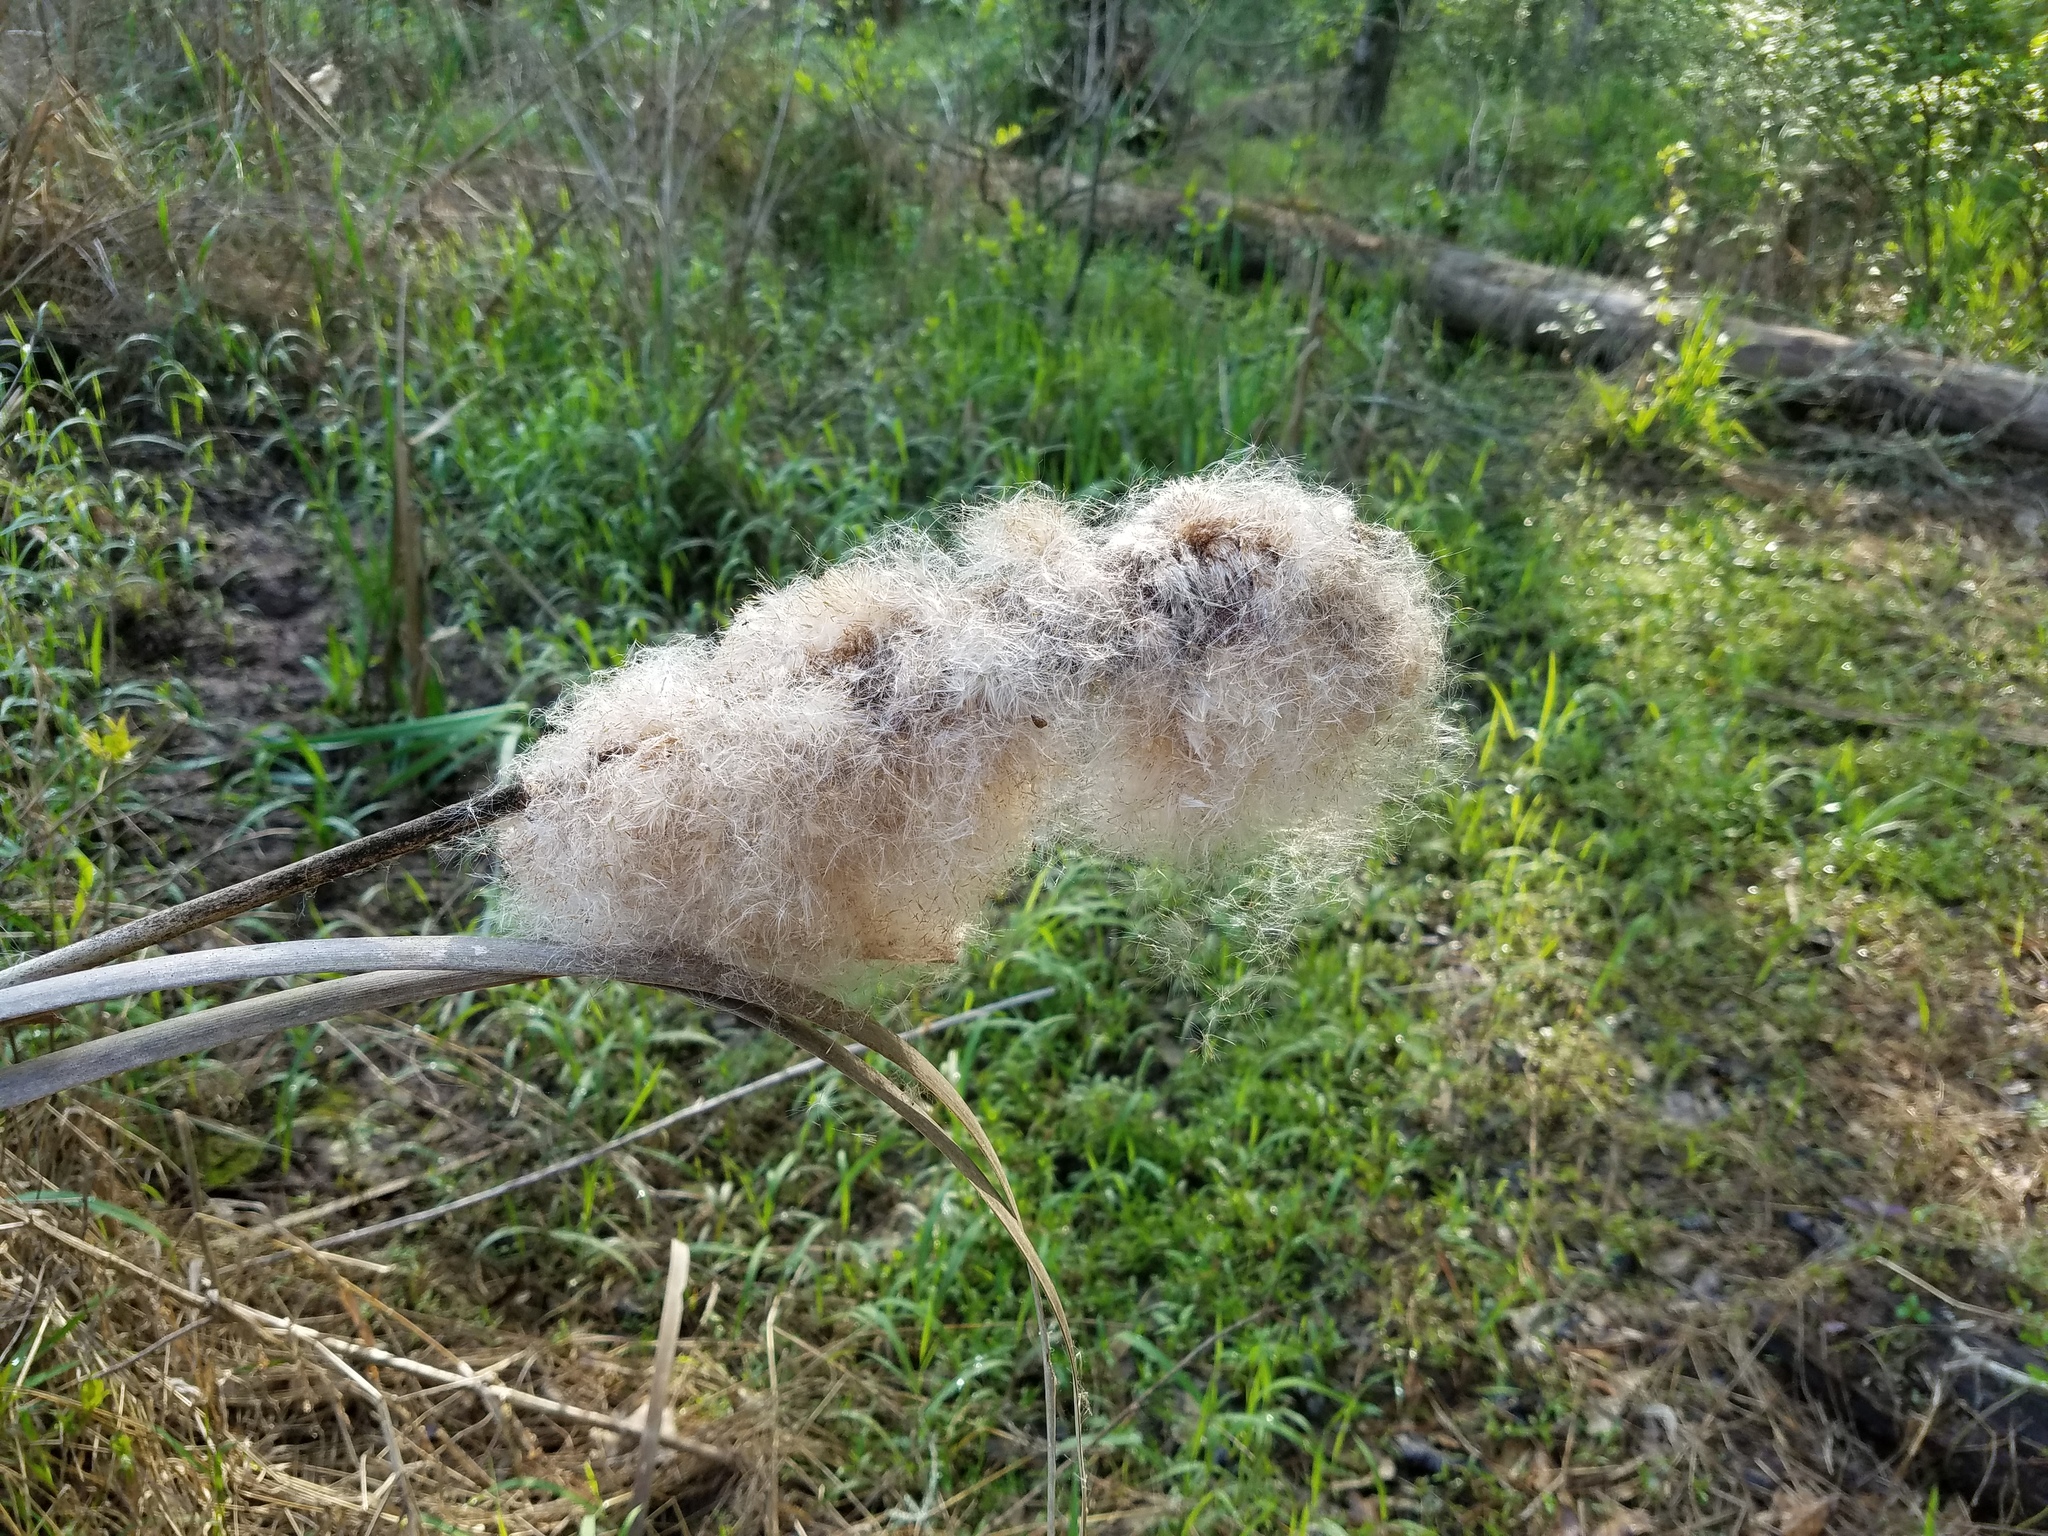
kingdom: Plantae
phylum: Tracheophyta
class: Liliopsida
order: Poales
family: Typhaceae
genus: Typha
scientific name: Typha latifolia
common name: Broadleaf cattail
